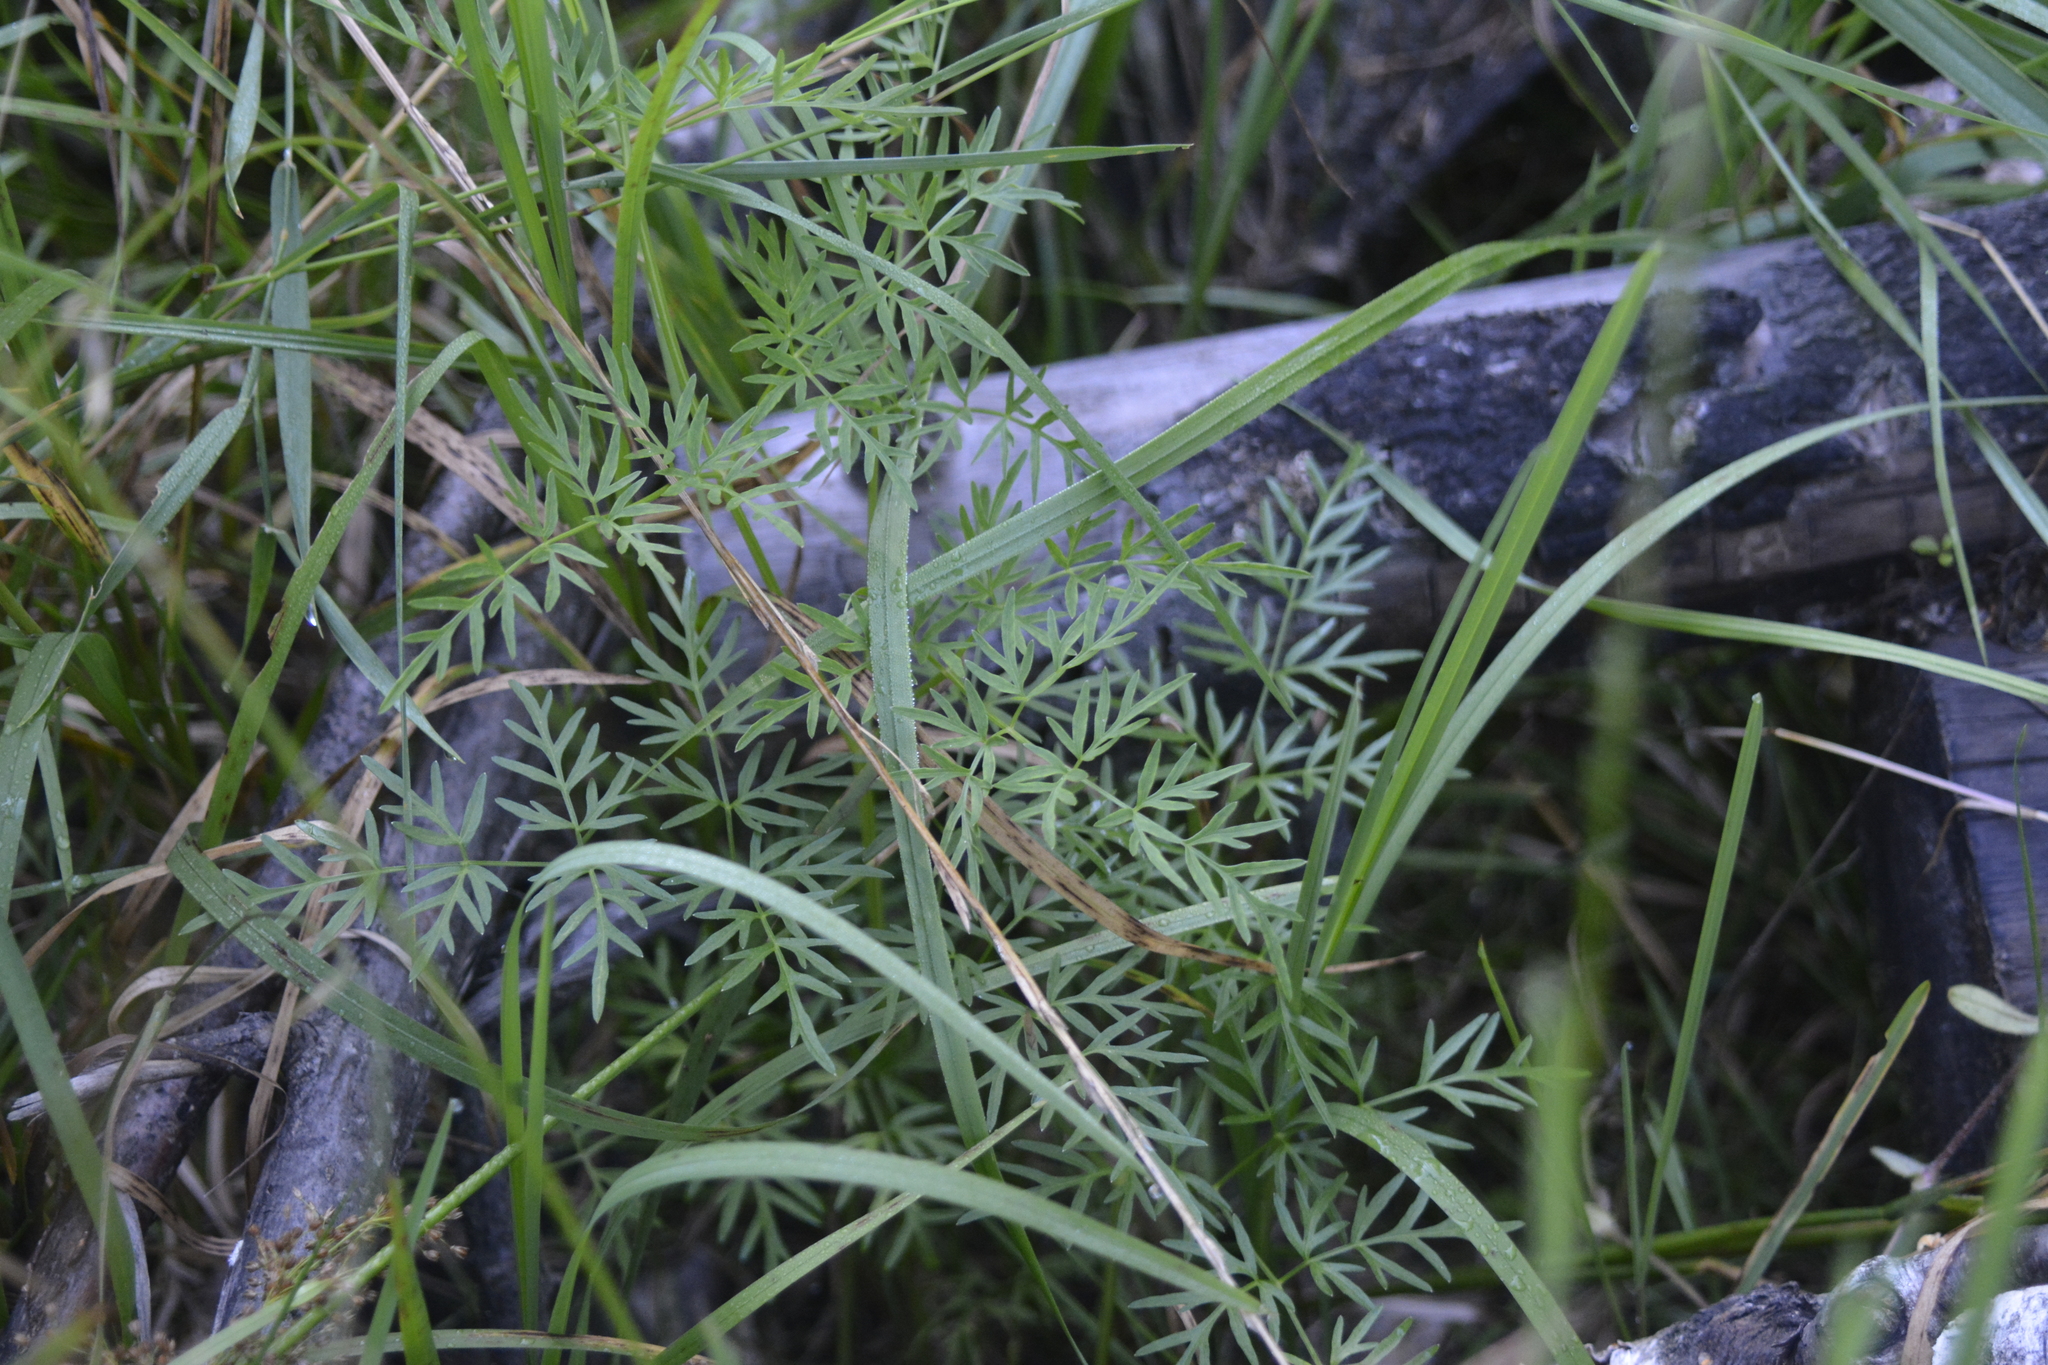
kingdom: Plantae
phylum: Tracheophyta
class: Magnoliopsida
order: Apiales
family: Apiaceae
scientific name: Apiaceae
